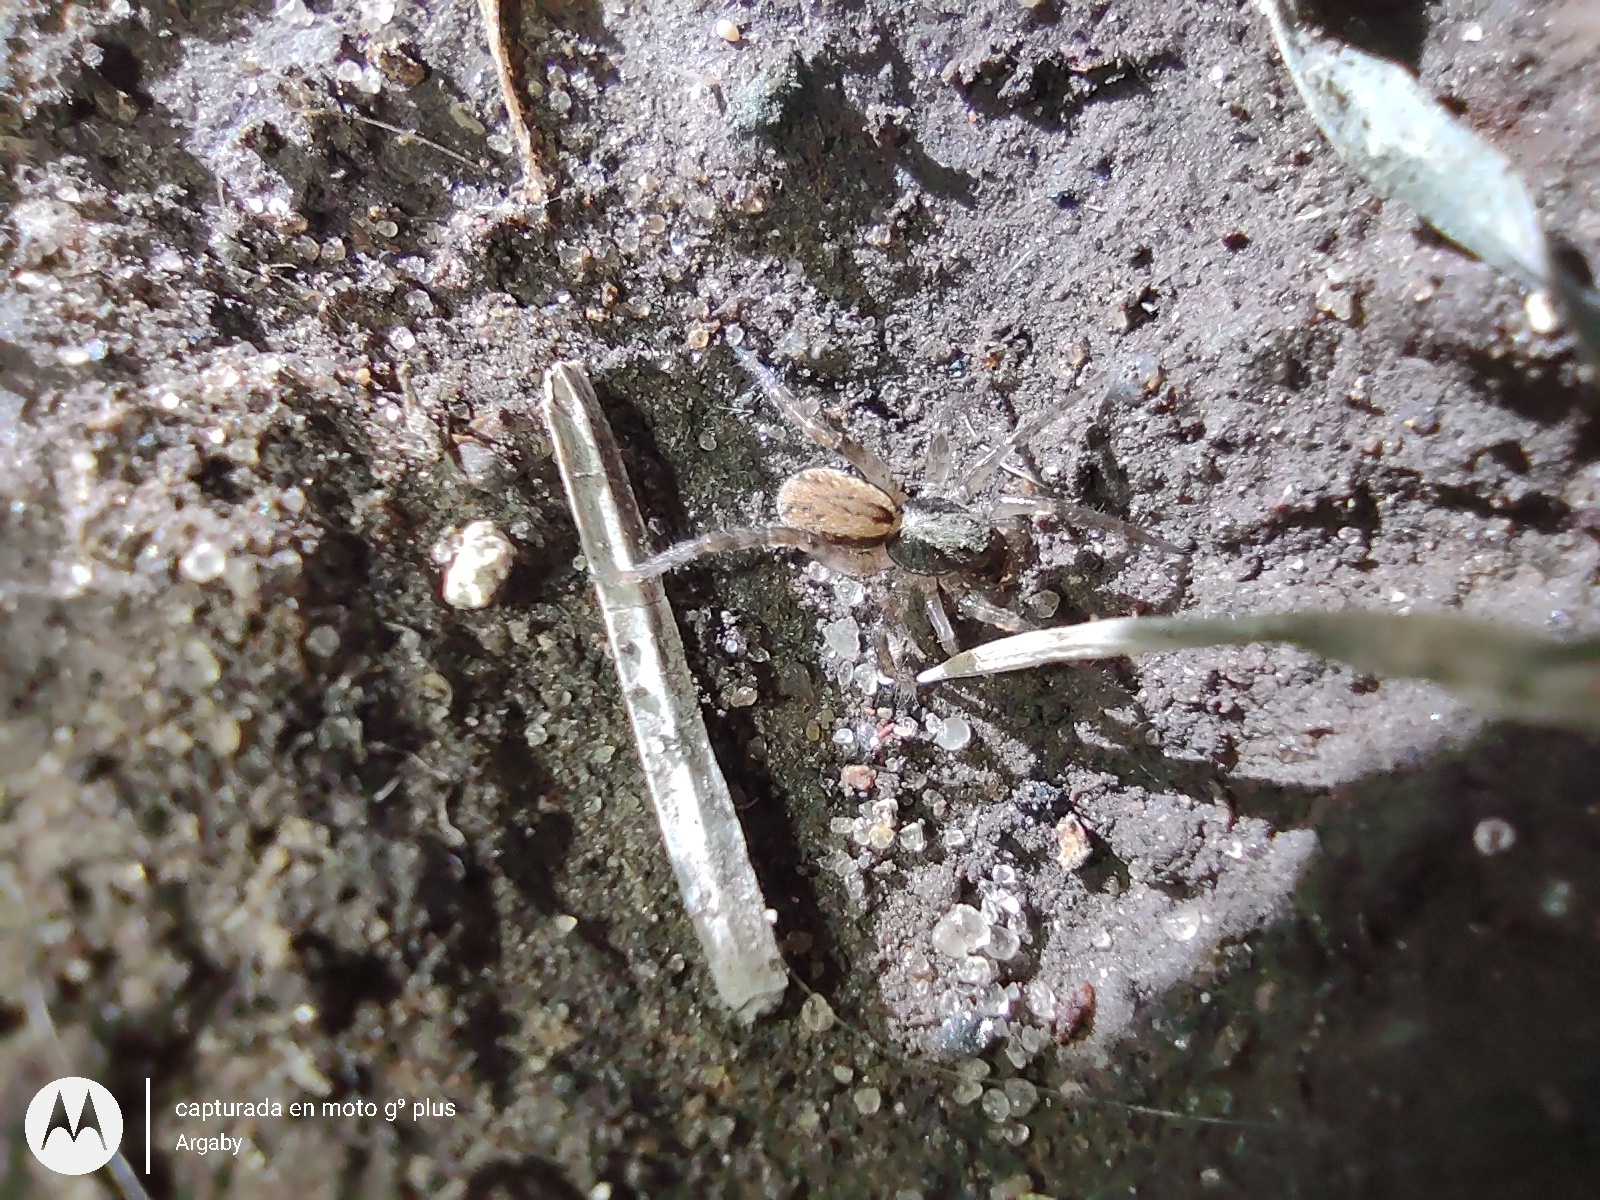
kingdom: Animalia
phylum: Arthropoda
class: Arachnida
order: Araneae
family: Lycosidae
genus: Abaycosa
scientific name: Abaycosa nanica
